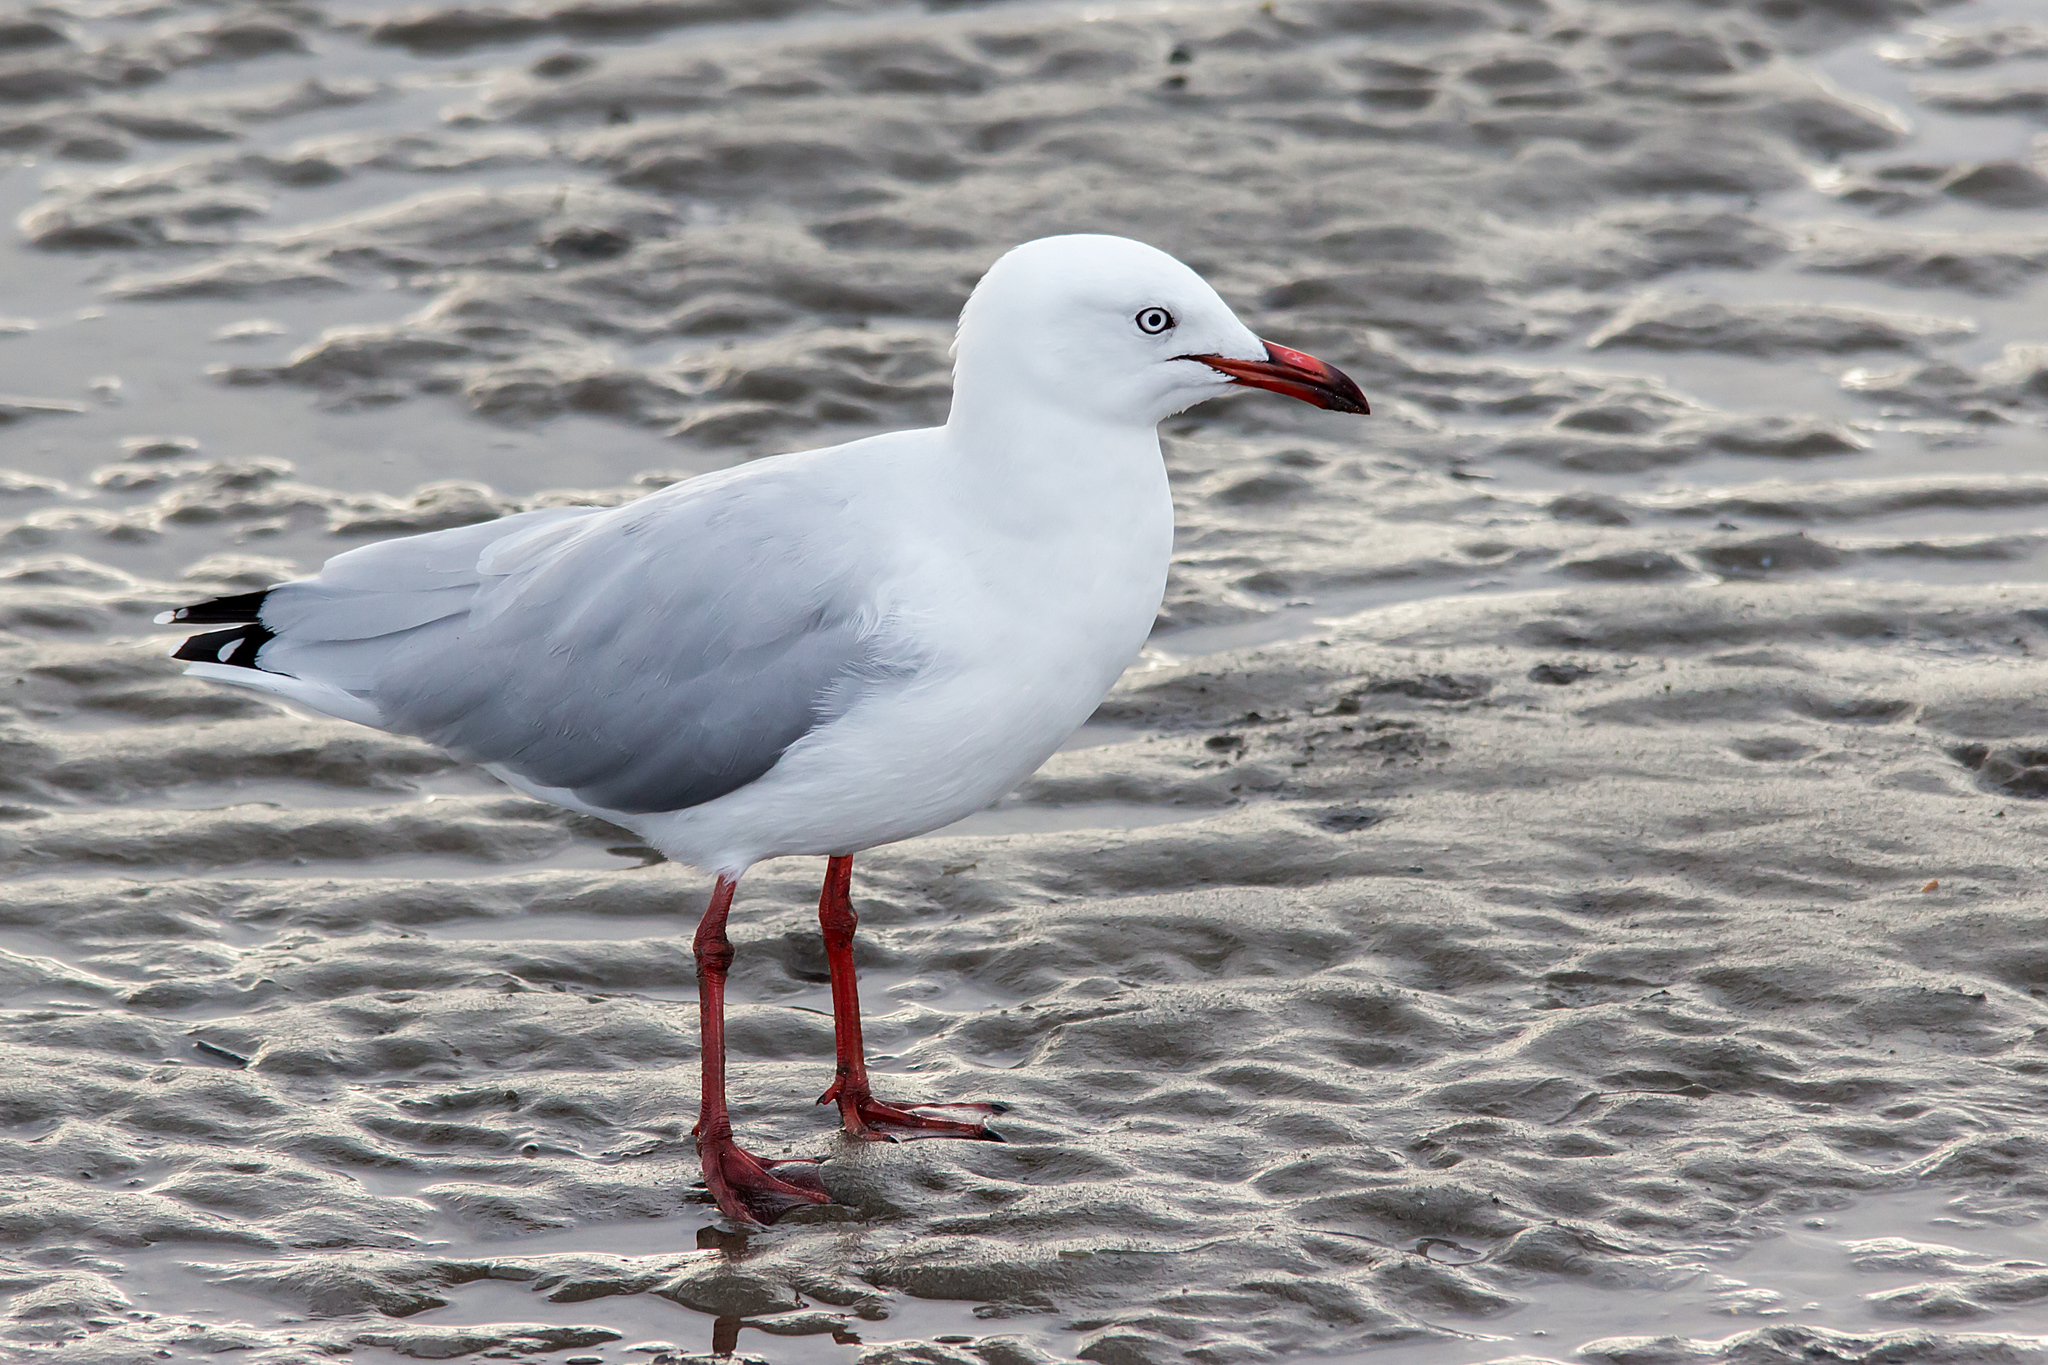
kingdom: Animalia
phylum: Chordata
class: Aves
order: Charadriiformes
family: Laridae
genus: Chroicocephalus
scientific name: Chroicocephalus novaehollandiae
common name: Silver gull
